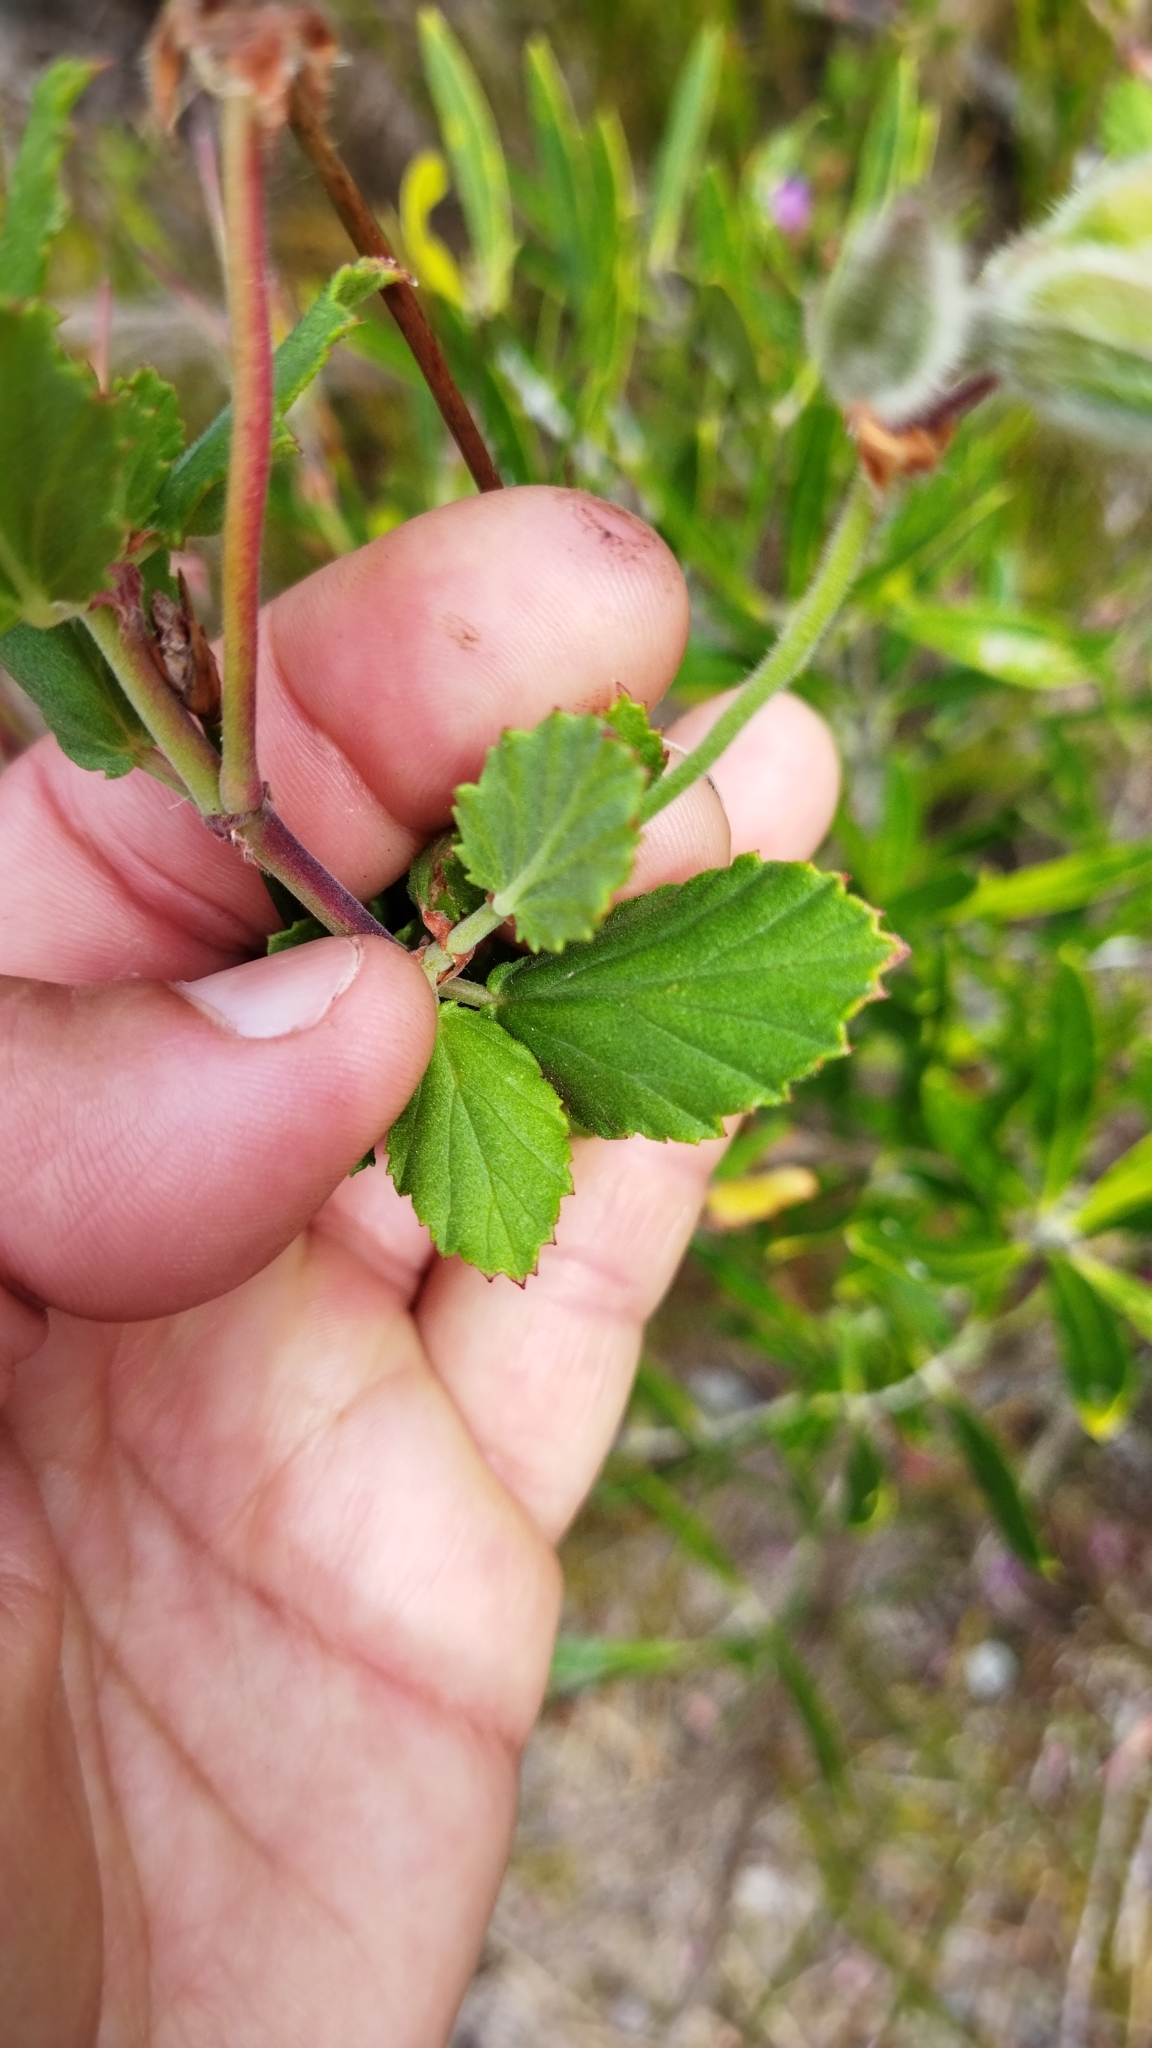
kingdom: Plantae
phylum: Tracheophyta
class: Magnoliopsida
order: Geraniales
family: Geraniaceae
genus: Pelargonium
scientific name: Pelargonium betulinum
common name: Birch-leaf pelargonium
